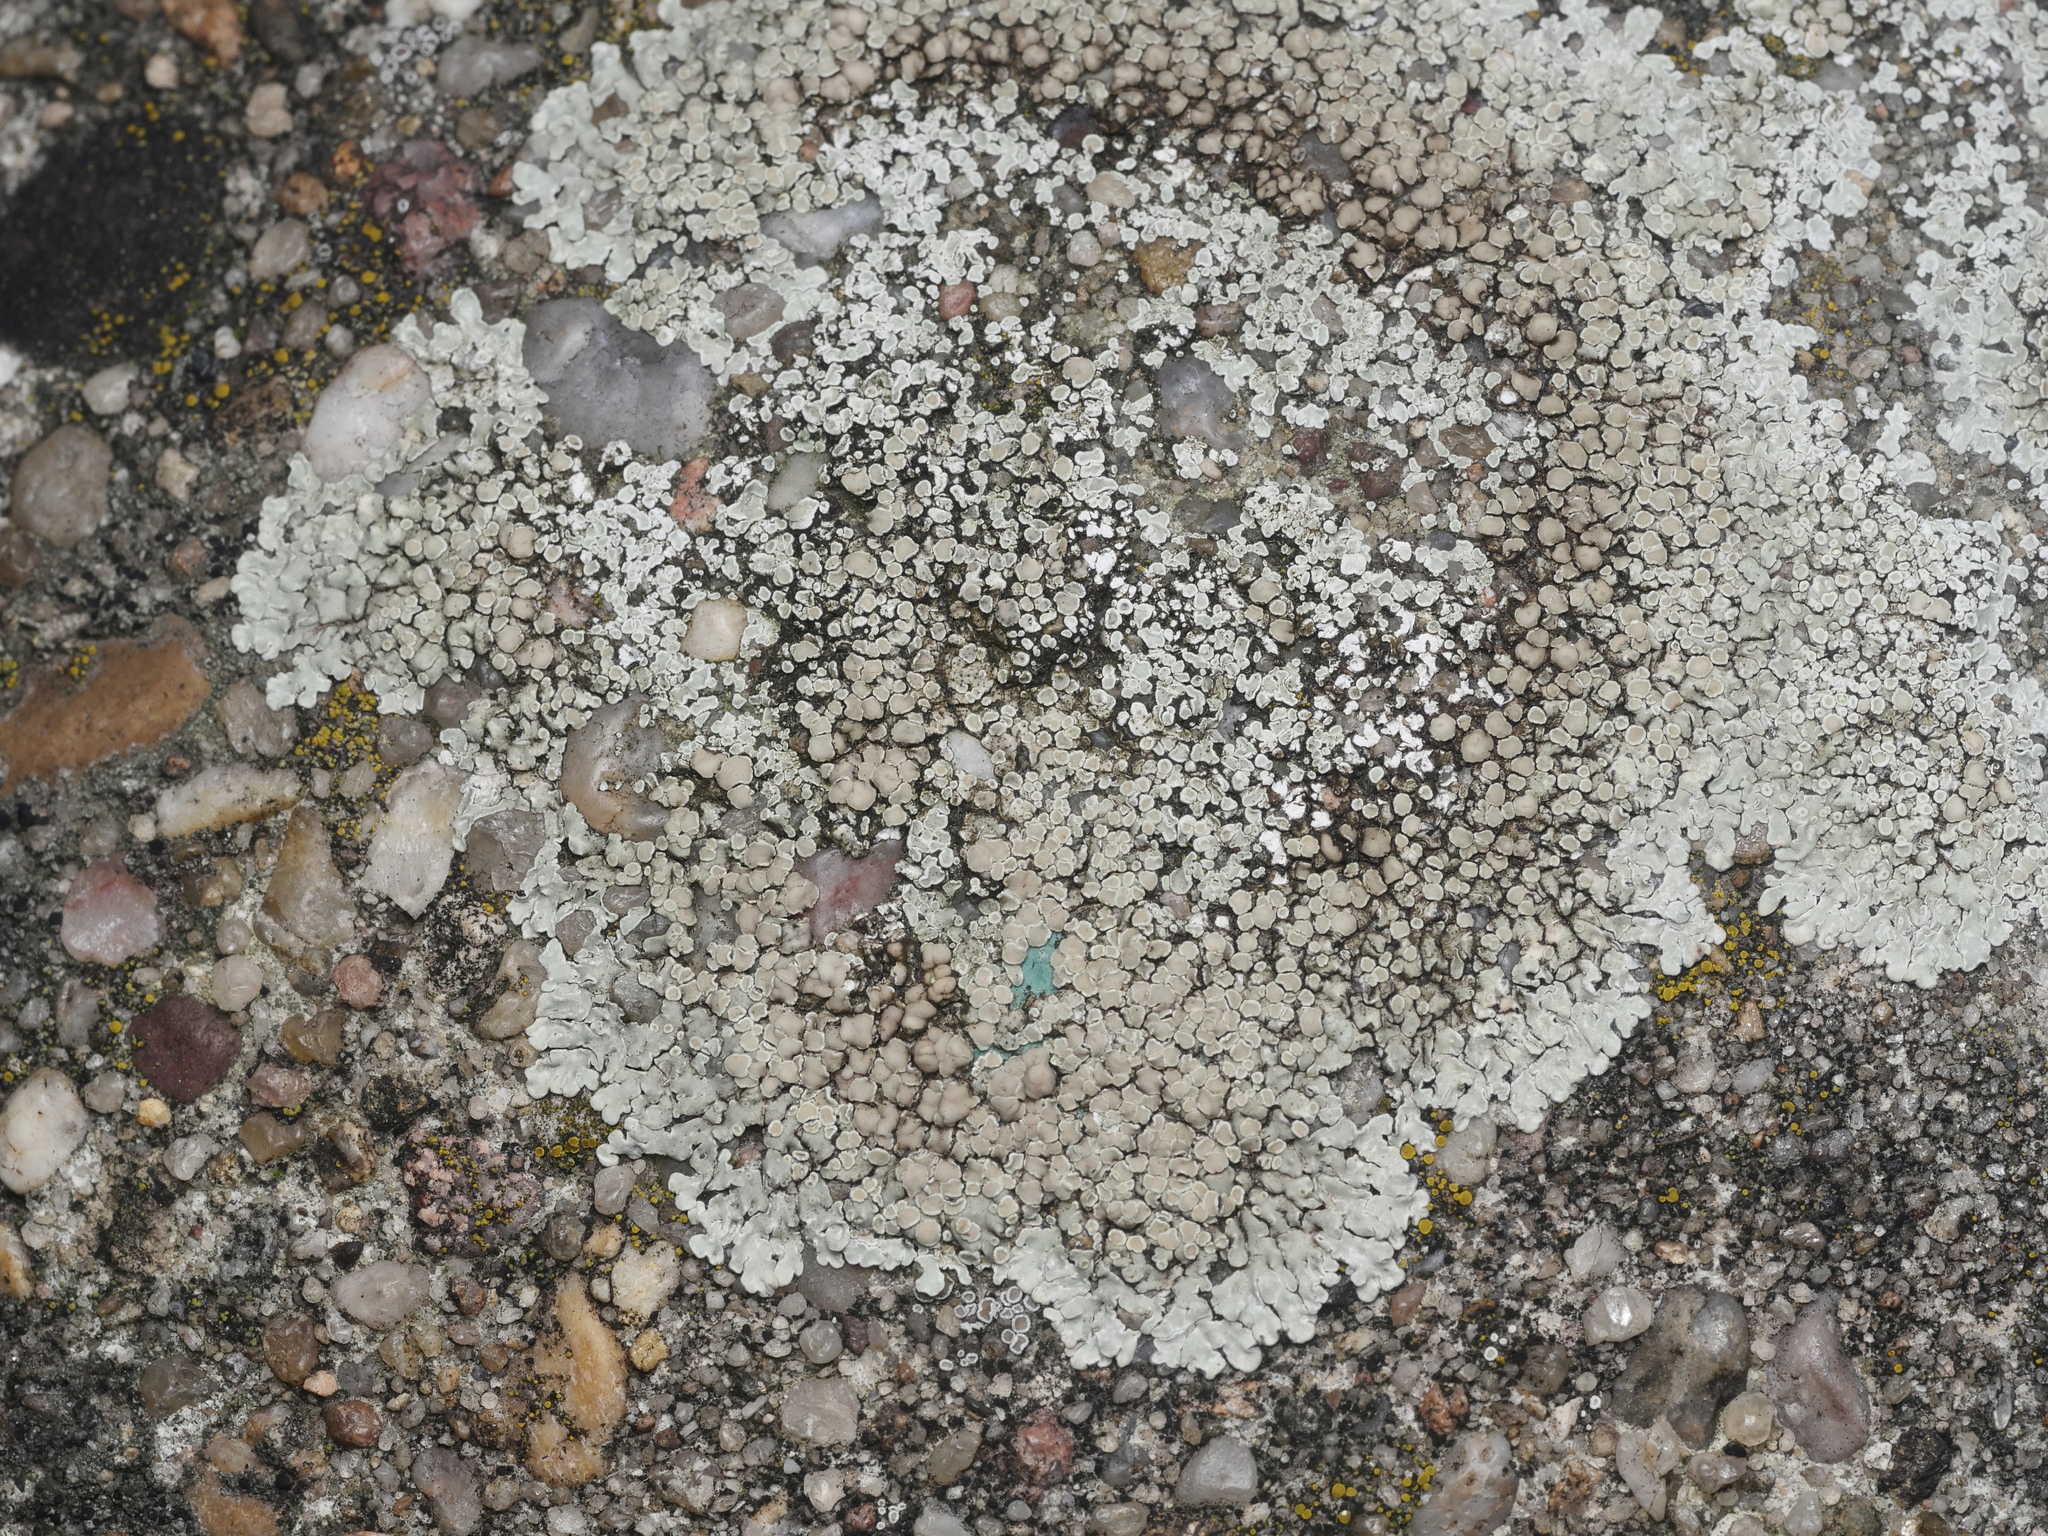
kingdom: Fungi
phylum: Ascomycota
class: Lecanoromycetes
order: Lecanorales
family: Lecanoraceae
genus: Protoparmeliopsis
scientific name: Protoparmeliopsis muralis
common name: Stonewall rim lichen
